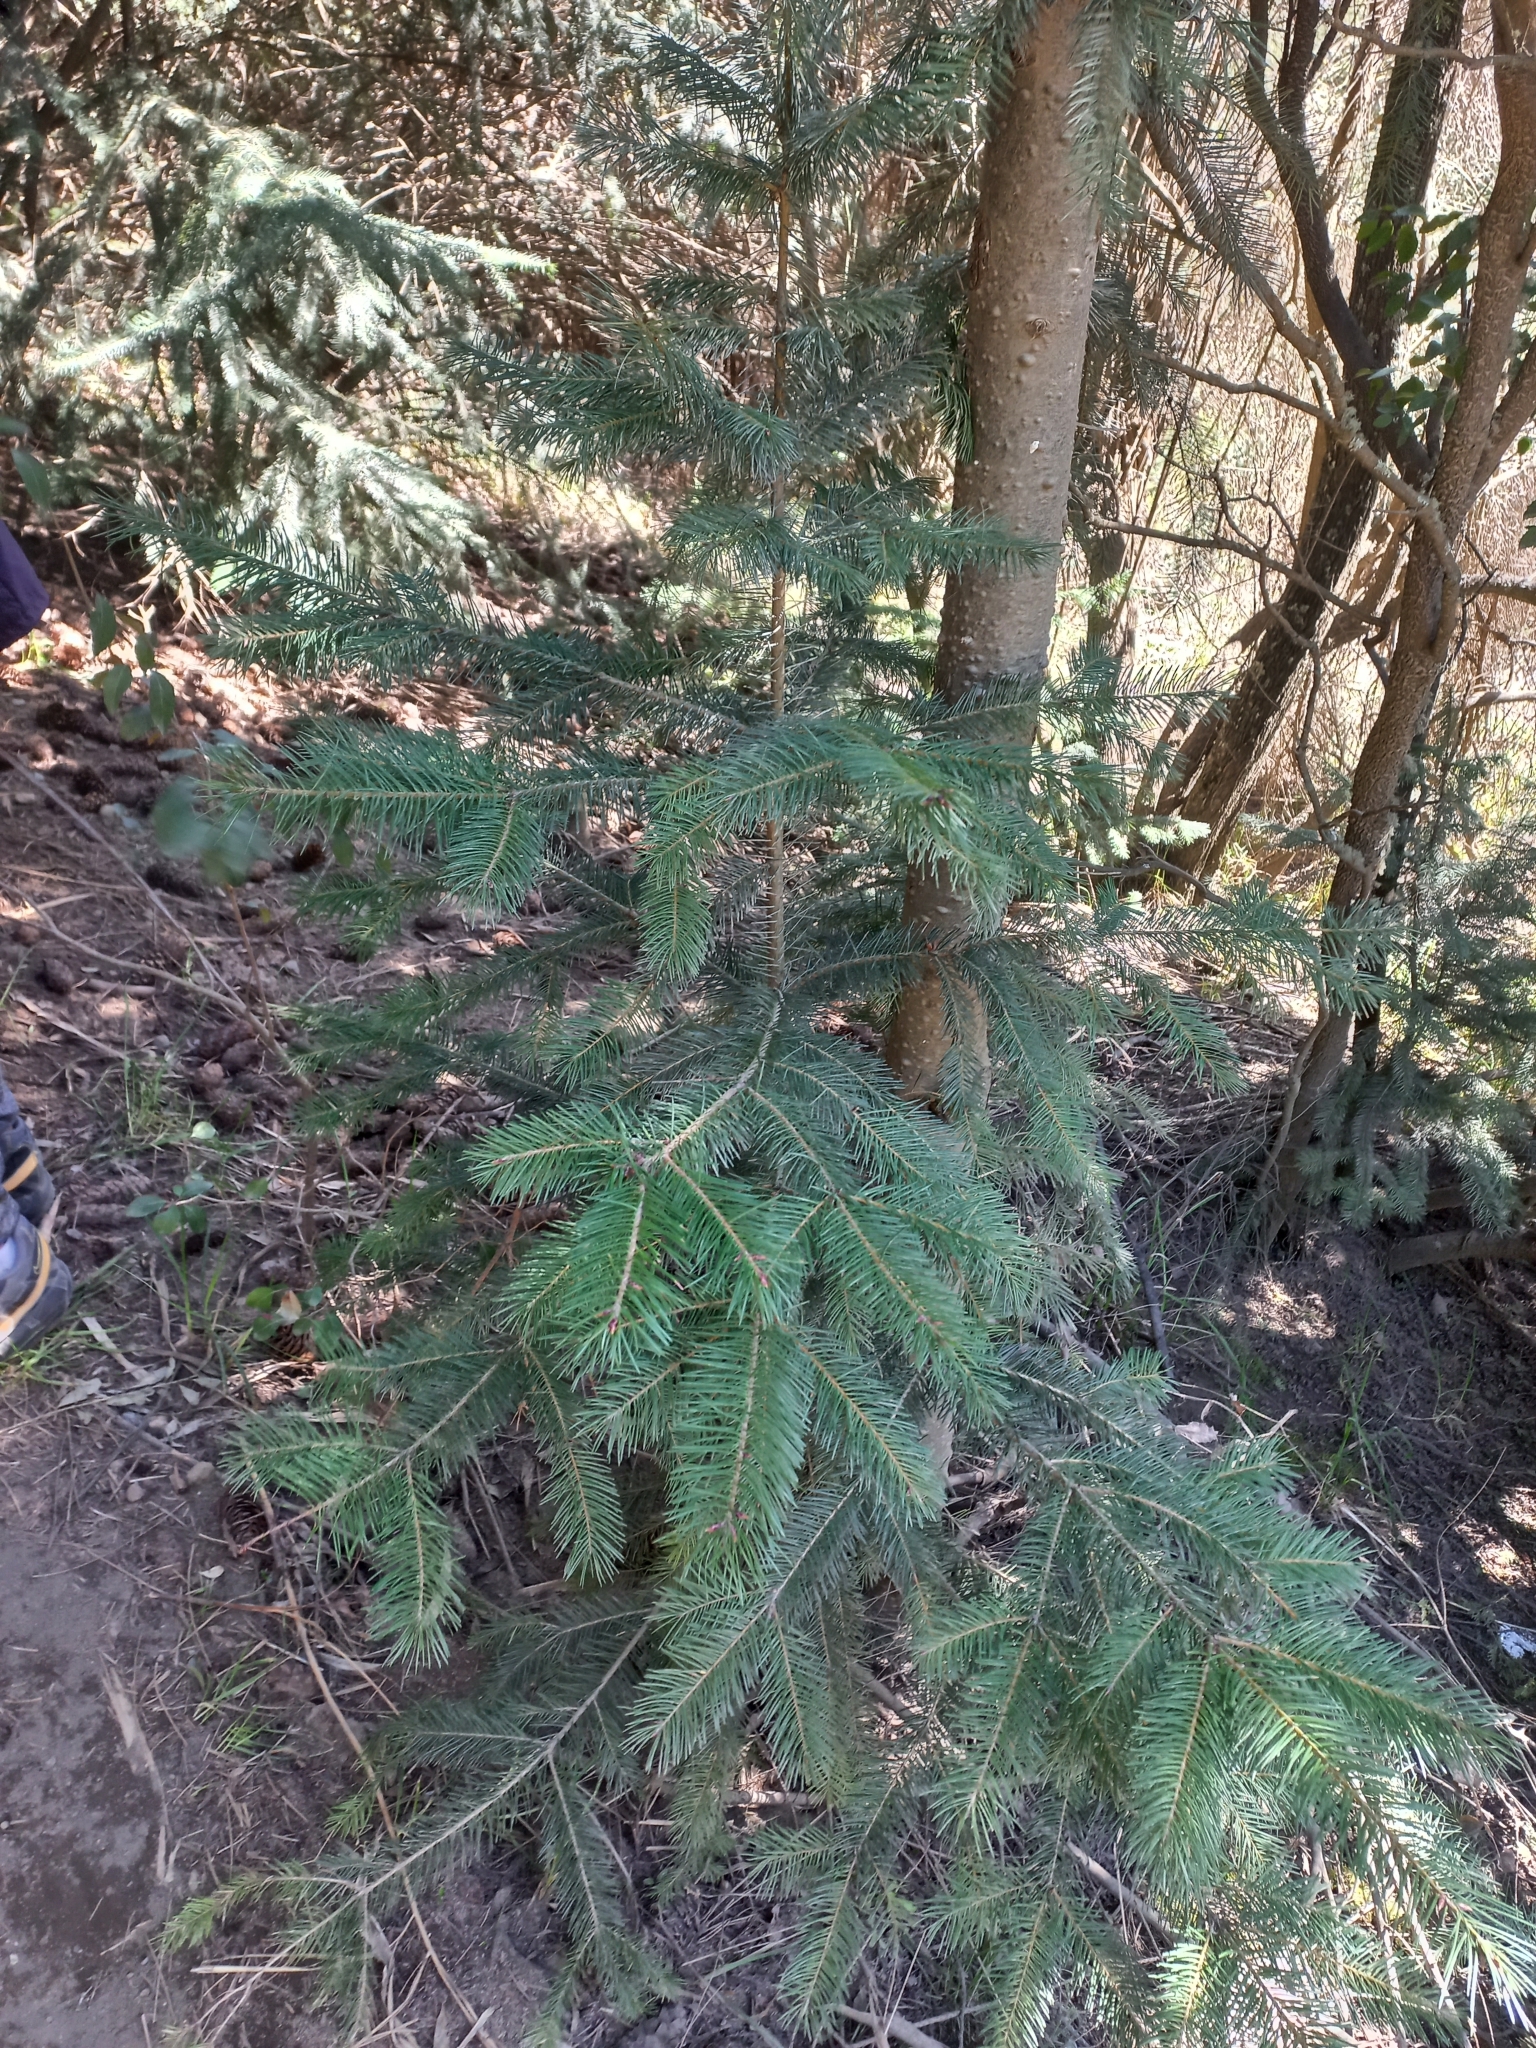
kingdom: Plantae
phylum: Tracheophyta
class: Pinopsida
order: Pinales
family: Pinaceae
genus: Pseudotsuga
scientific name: Pseudotsuga menziesii
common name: Douglas fir
